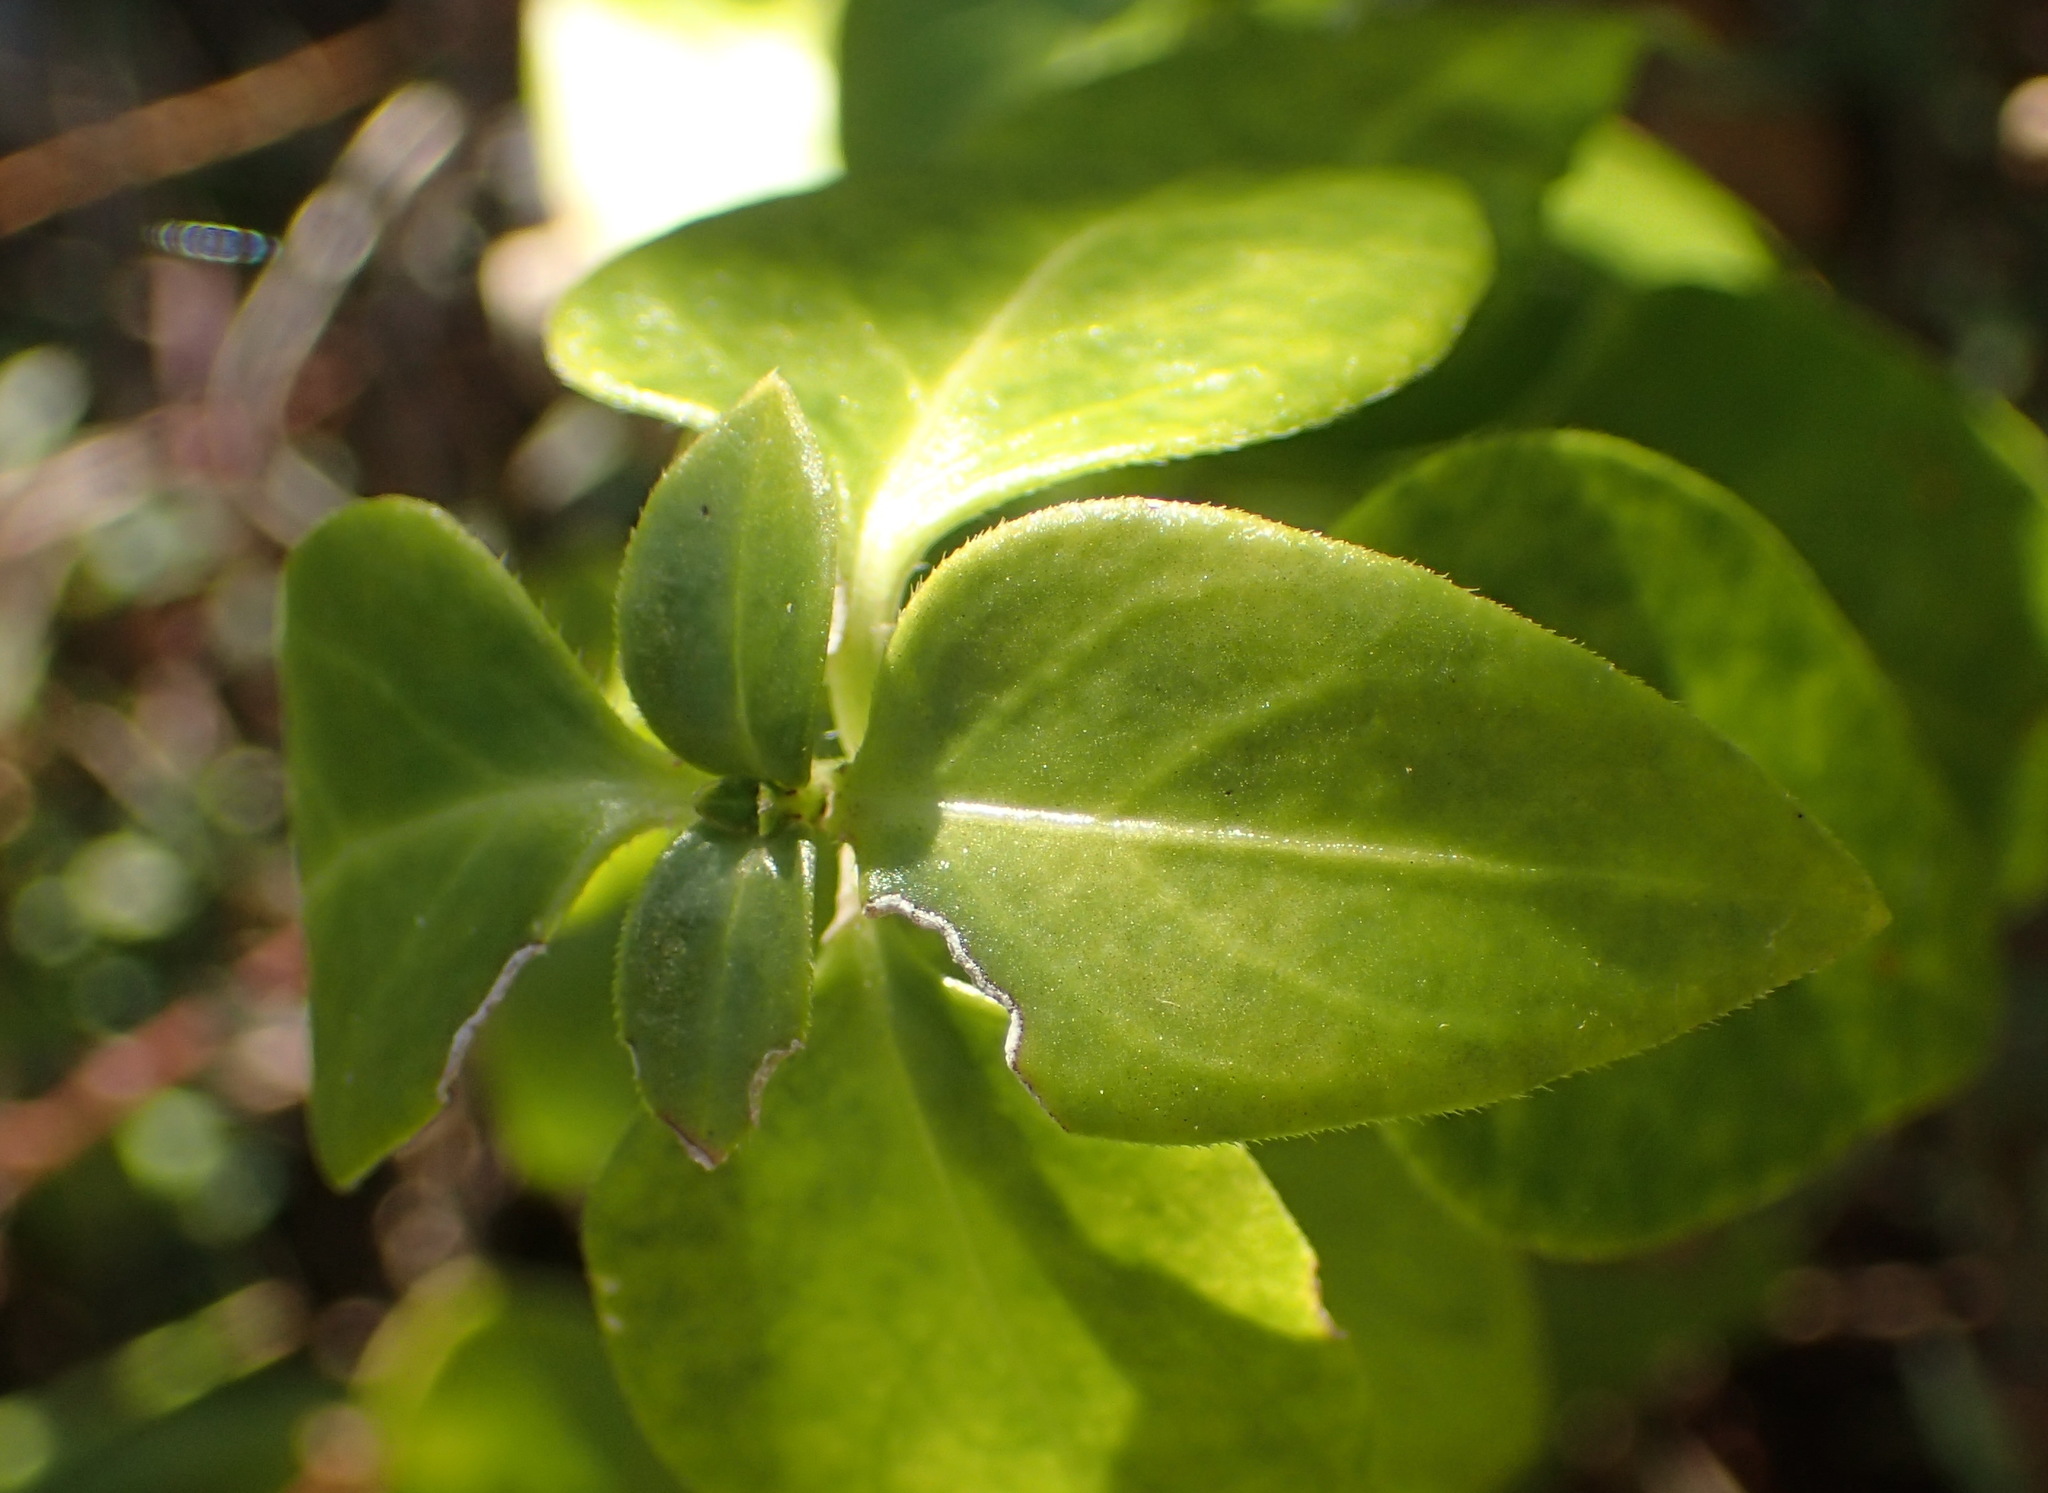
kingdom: Plantae
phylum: Tracheophyta
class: Magnoliopsida
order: Gentianales
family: Apocynaceae
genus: Vinca
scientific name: Vinca major
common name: Greater periwinkle
